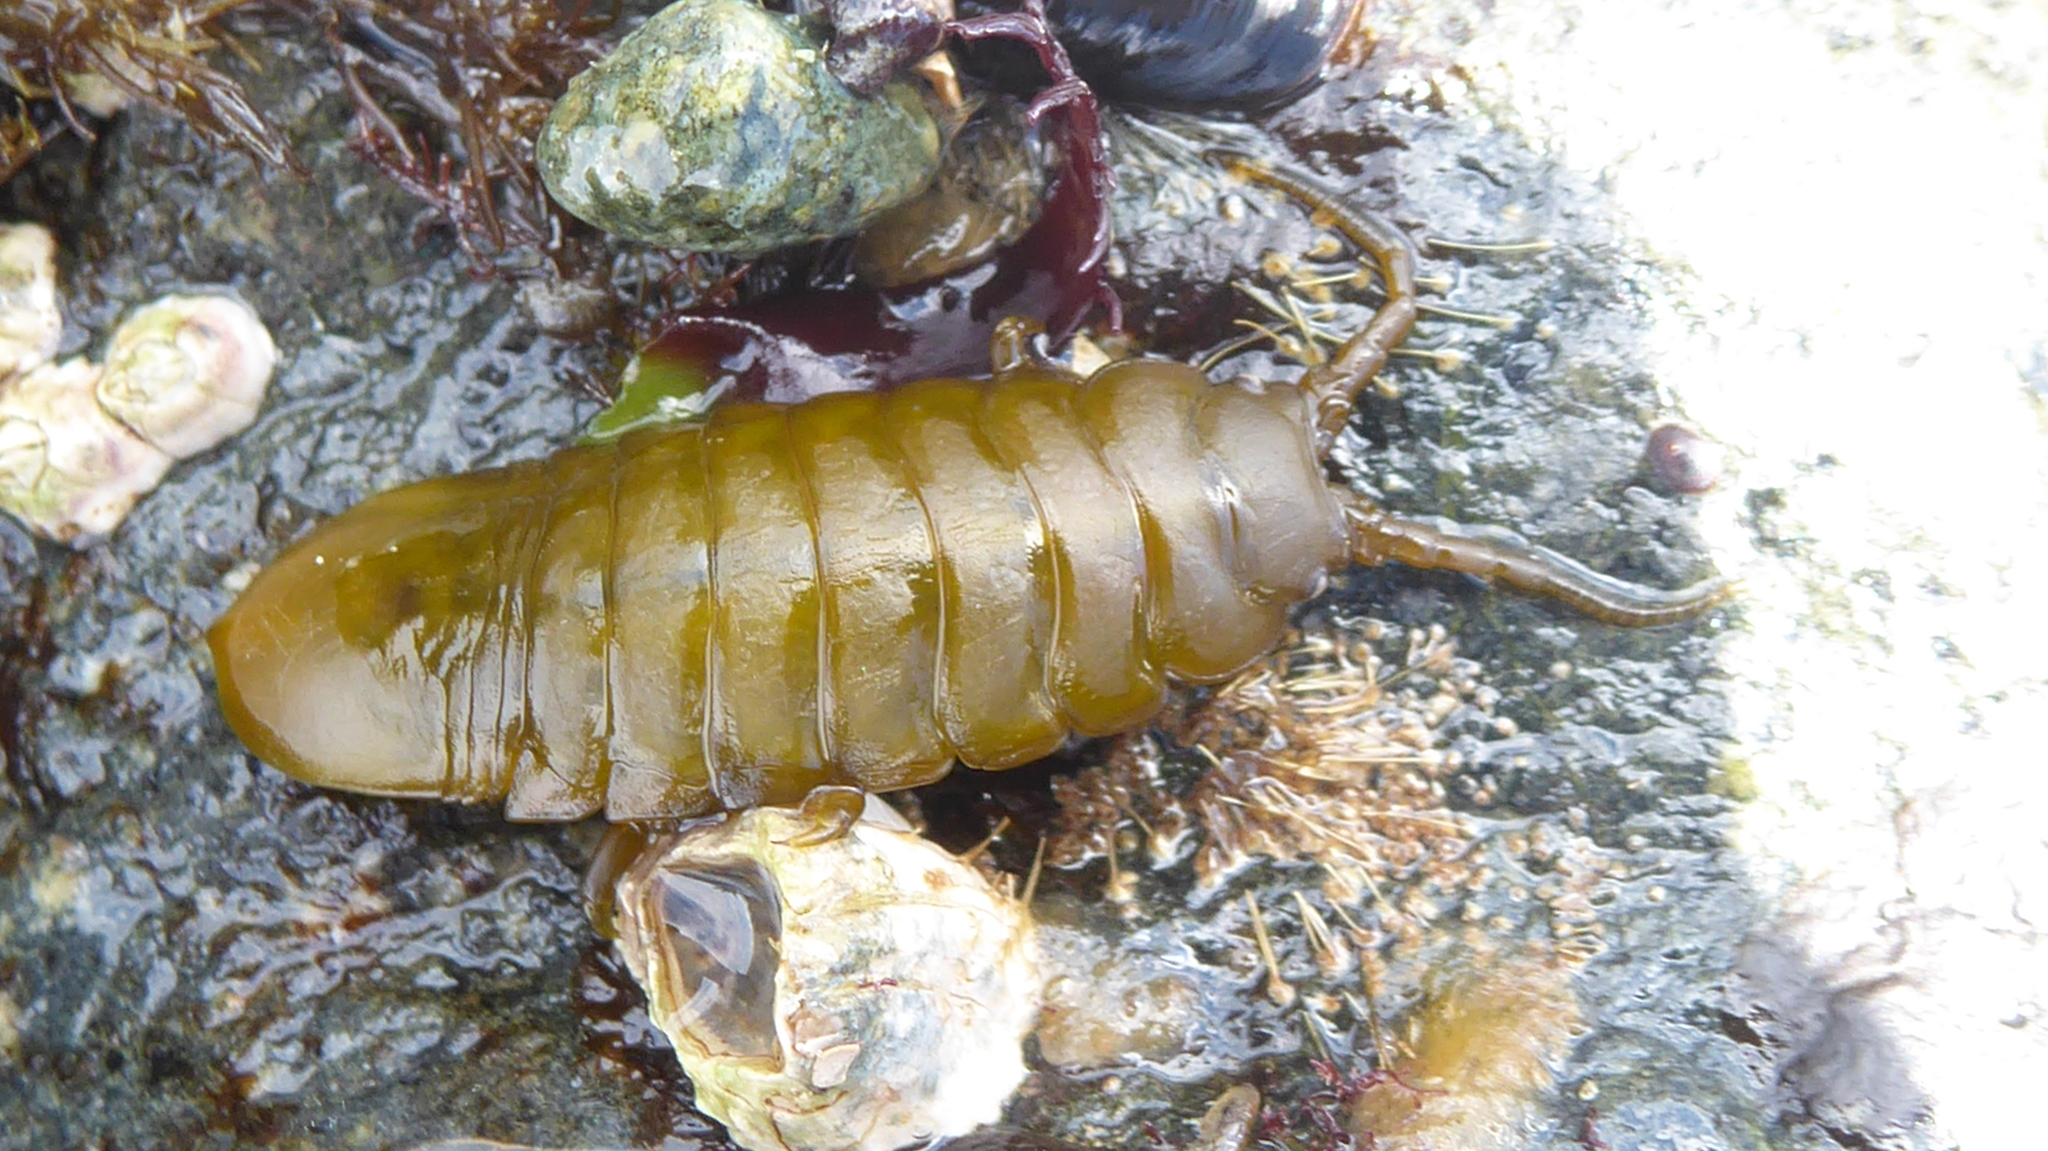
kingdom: Animalia
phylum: Arthropoda
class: Malacostraca
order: Isopoda
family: Idoteidae
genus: Pentidotea
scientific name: Pentidotea wosnesenskii
